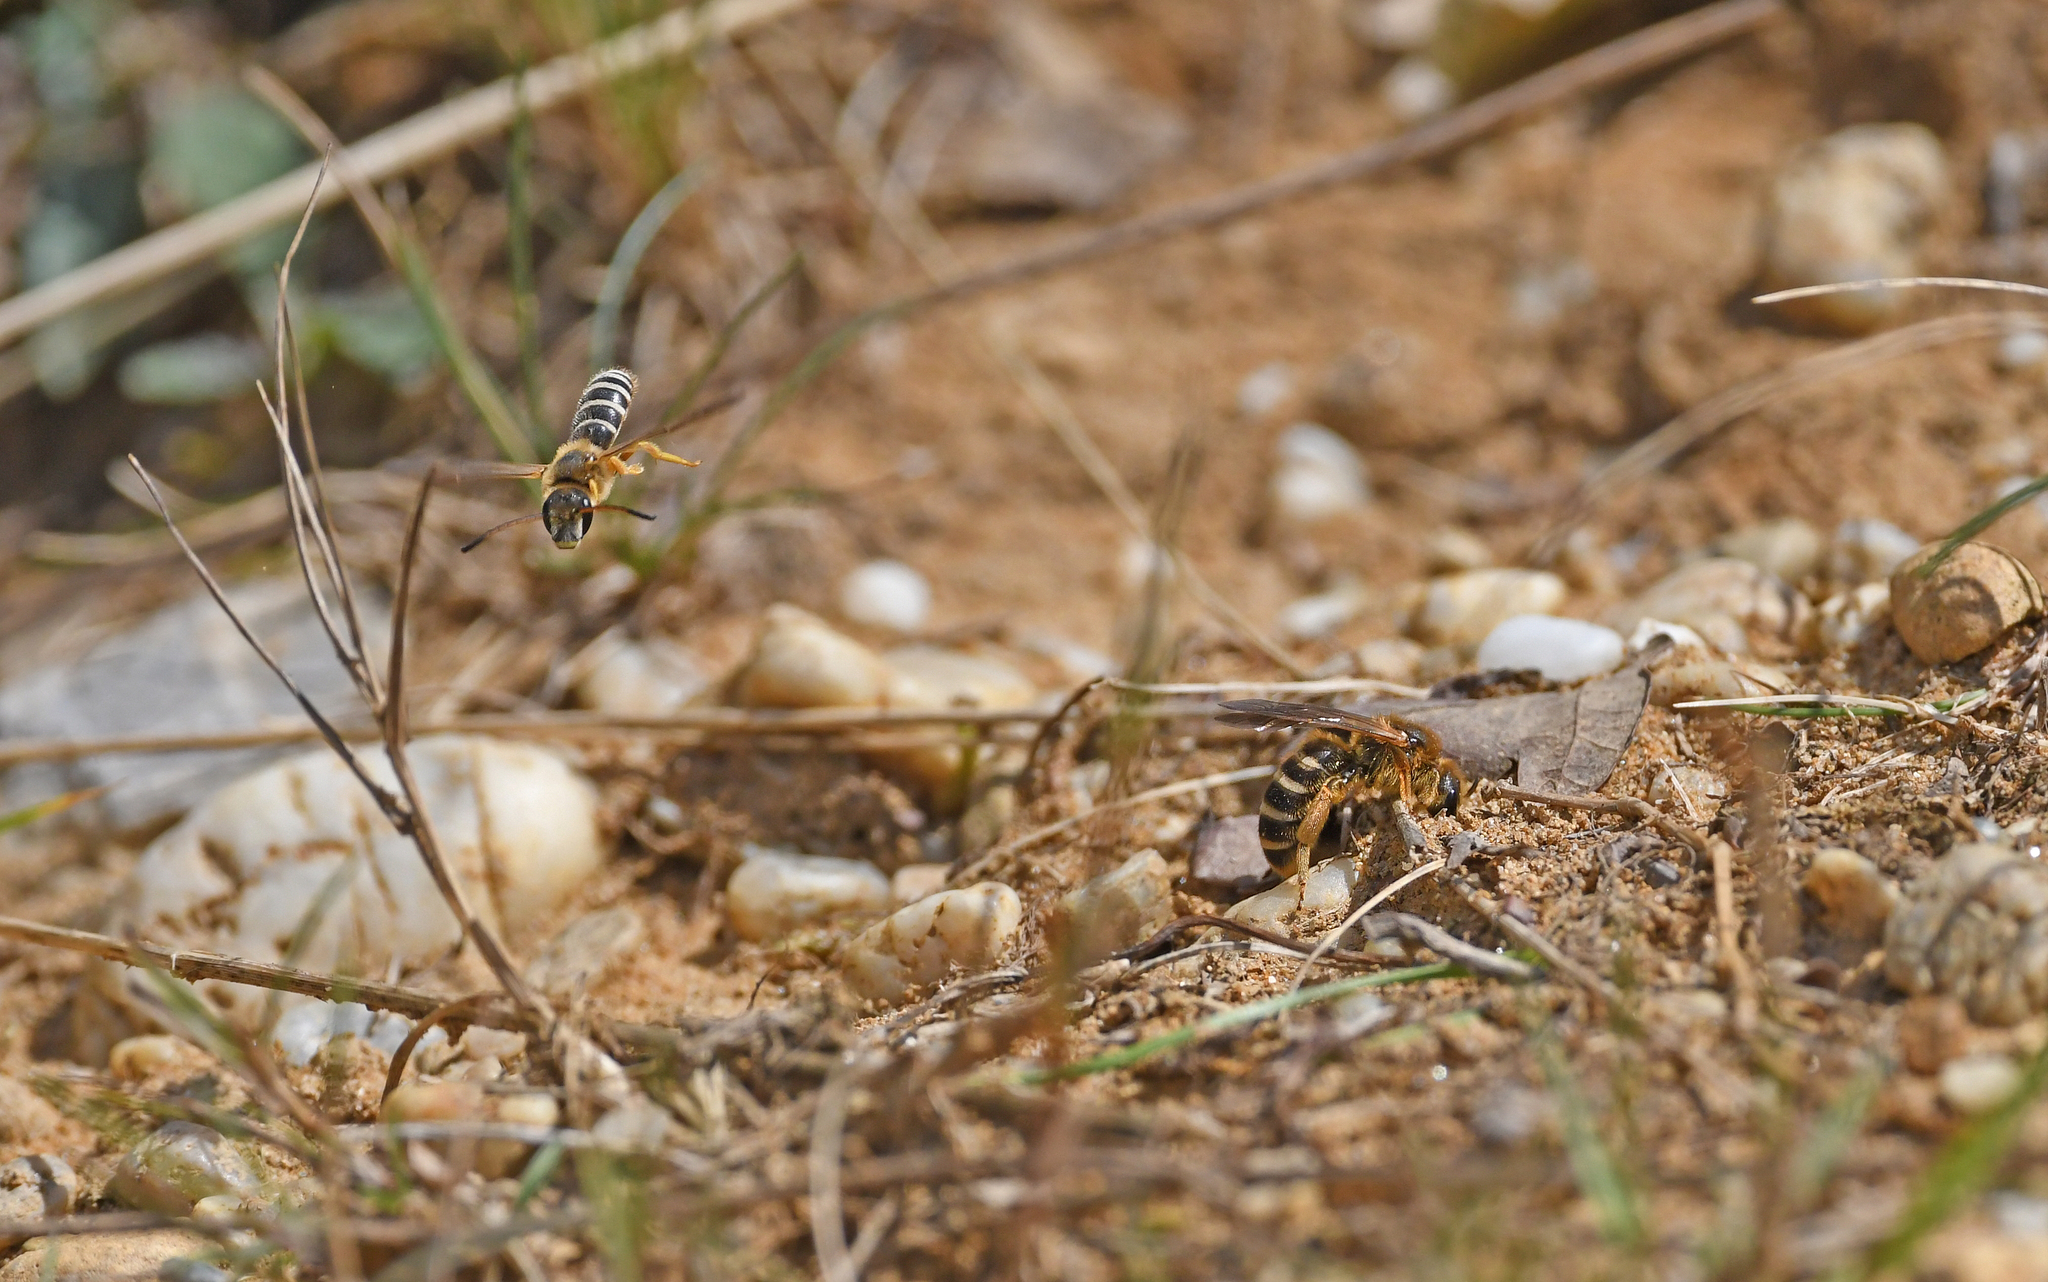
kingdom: Animalia
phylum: Arthropoda
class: Insecta
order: Hymenoptera
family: Halictidae
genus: Halictus
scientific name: Halictus sexcinctus
